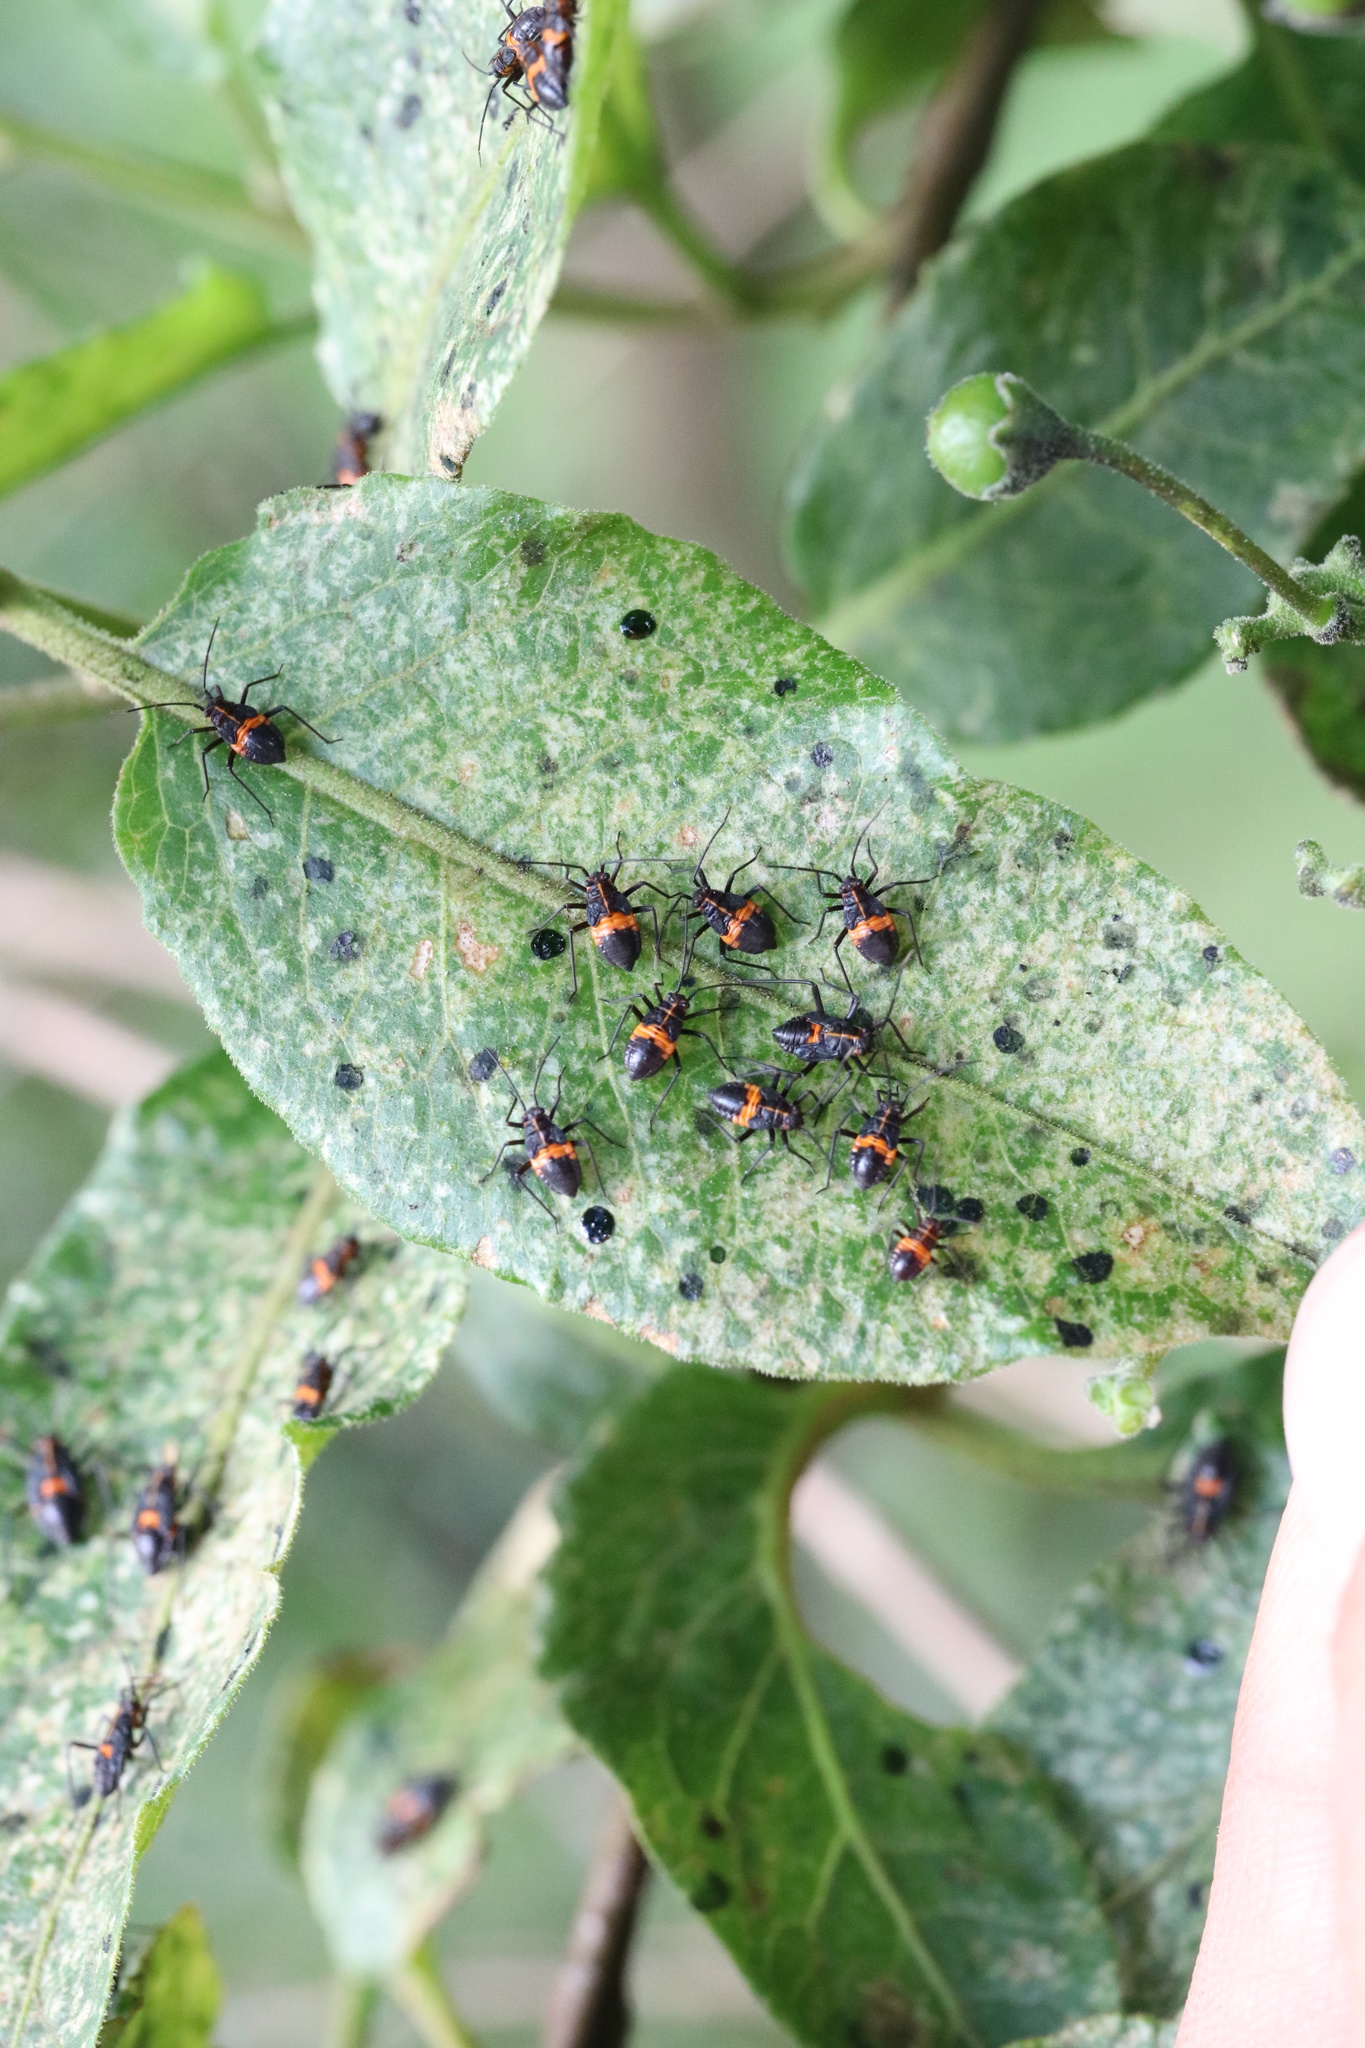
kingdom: Animalia
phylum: Arthropoda
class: Insecta
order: Hemiptera
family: Miridae
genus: Eurylomata
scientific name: Eurylomata picturata
